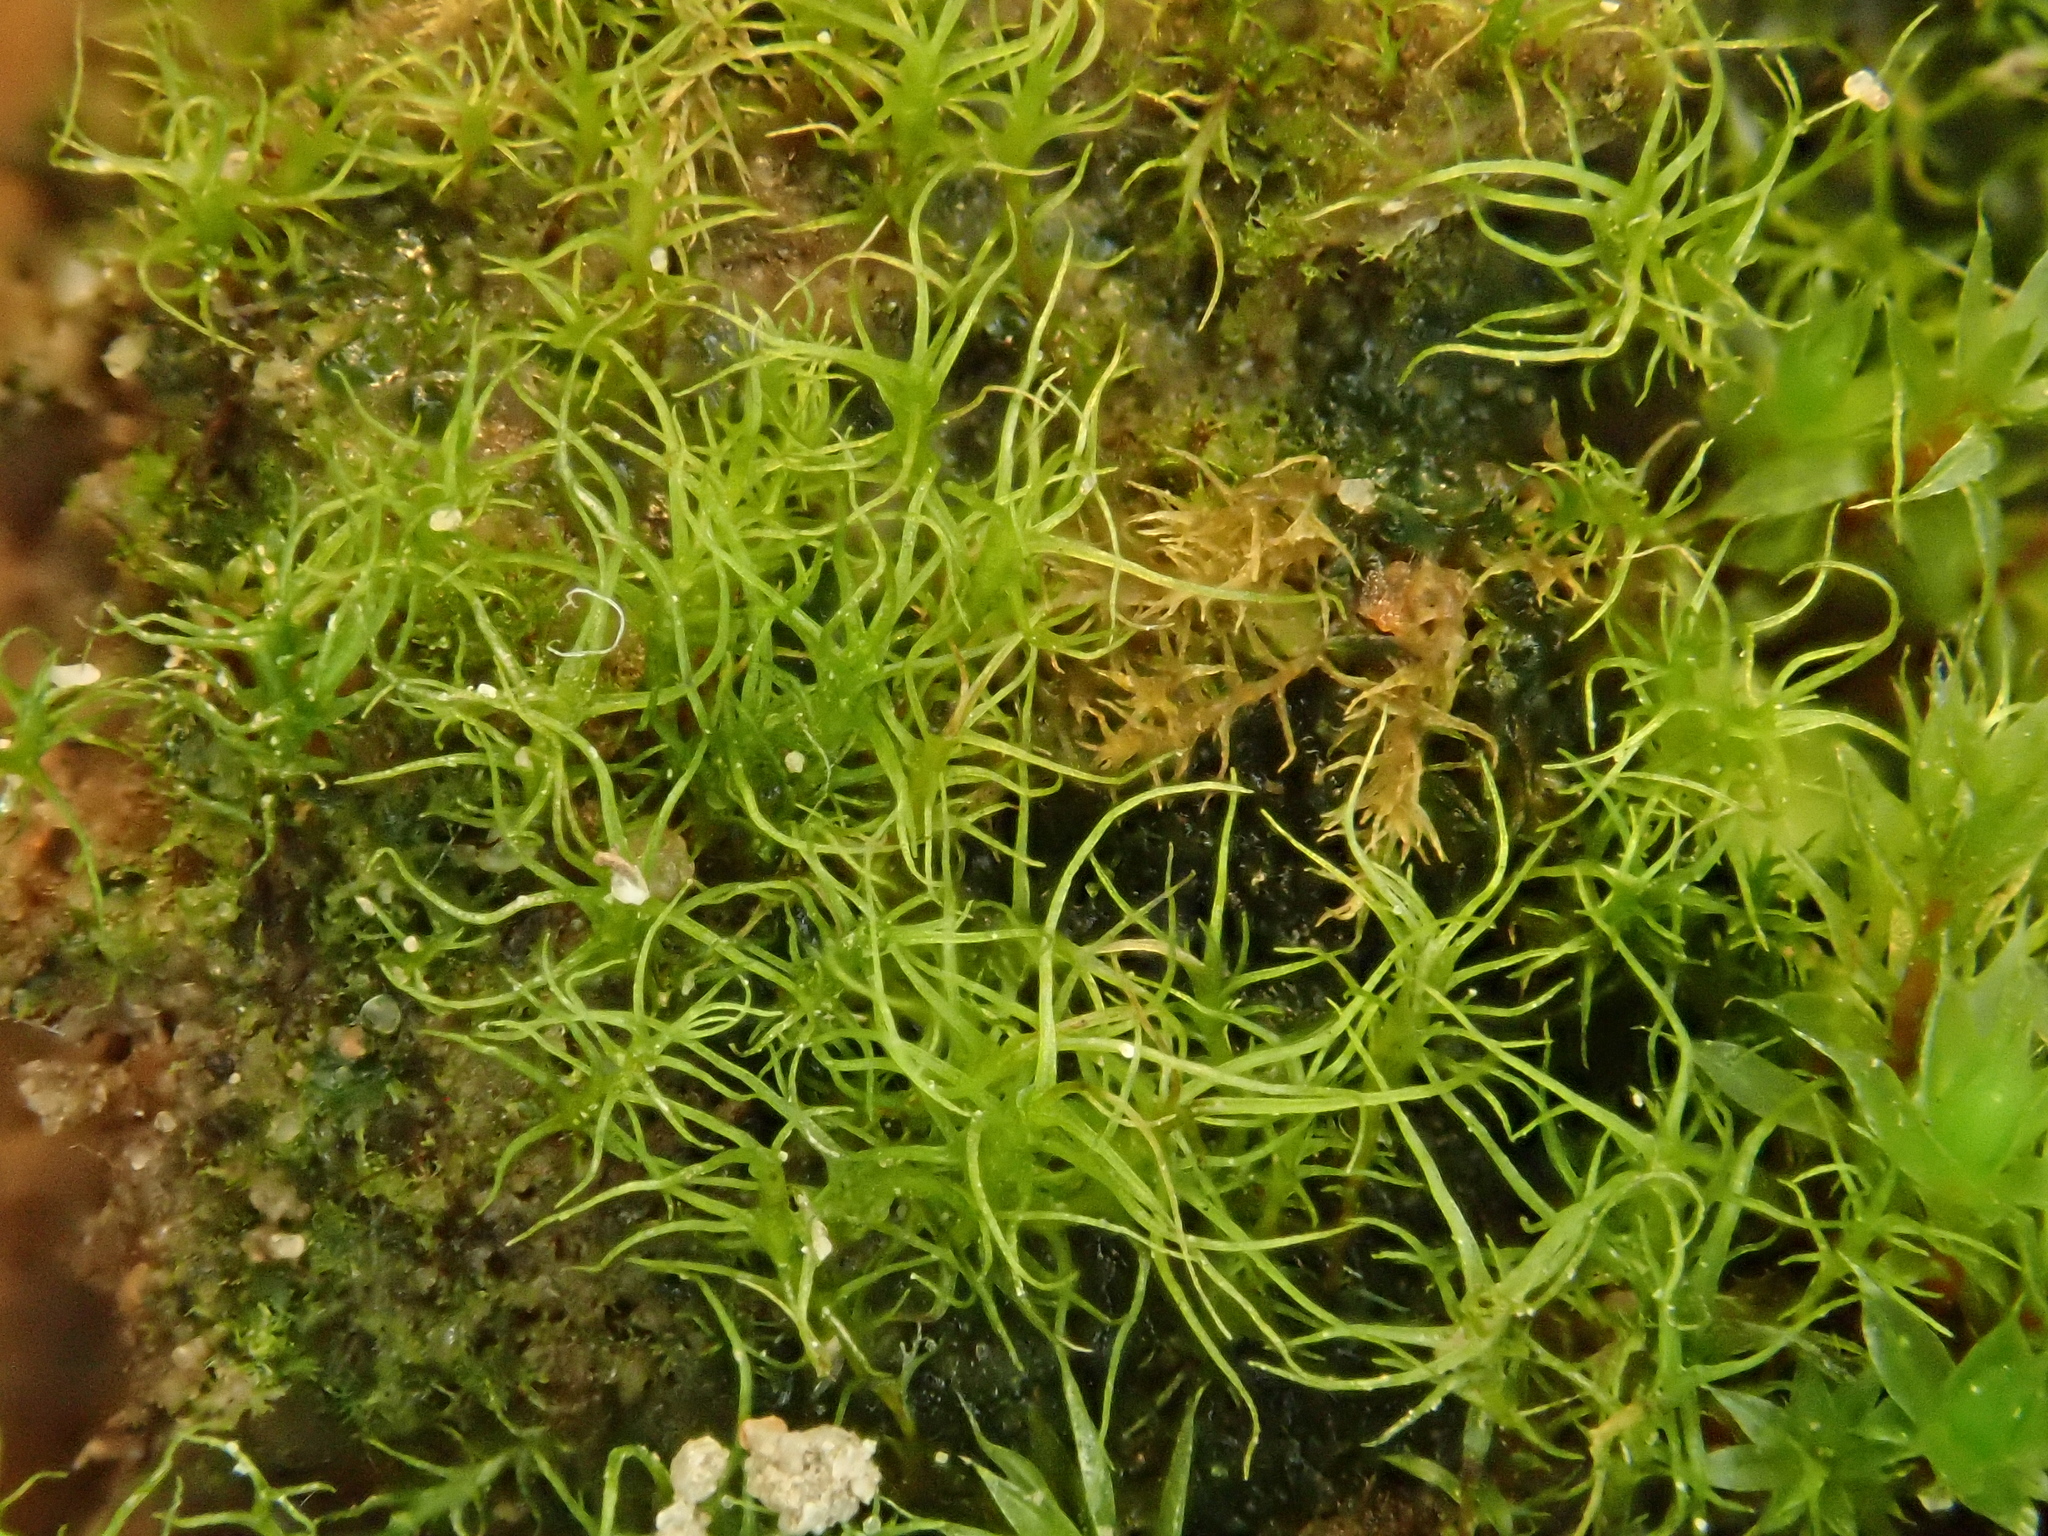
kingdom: Plantae
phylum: Bryophyta
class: Bryopsida
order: Dicranales
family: Ditrichaceae
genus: Trichodon
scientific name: Trichodon cylindricus
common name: Cylindric hairy-teeth moss
